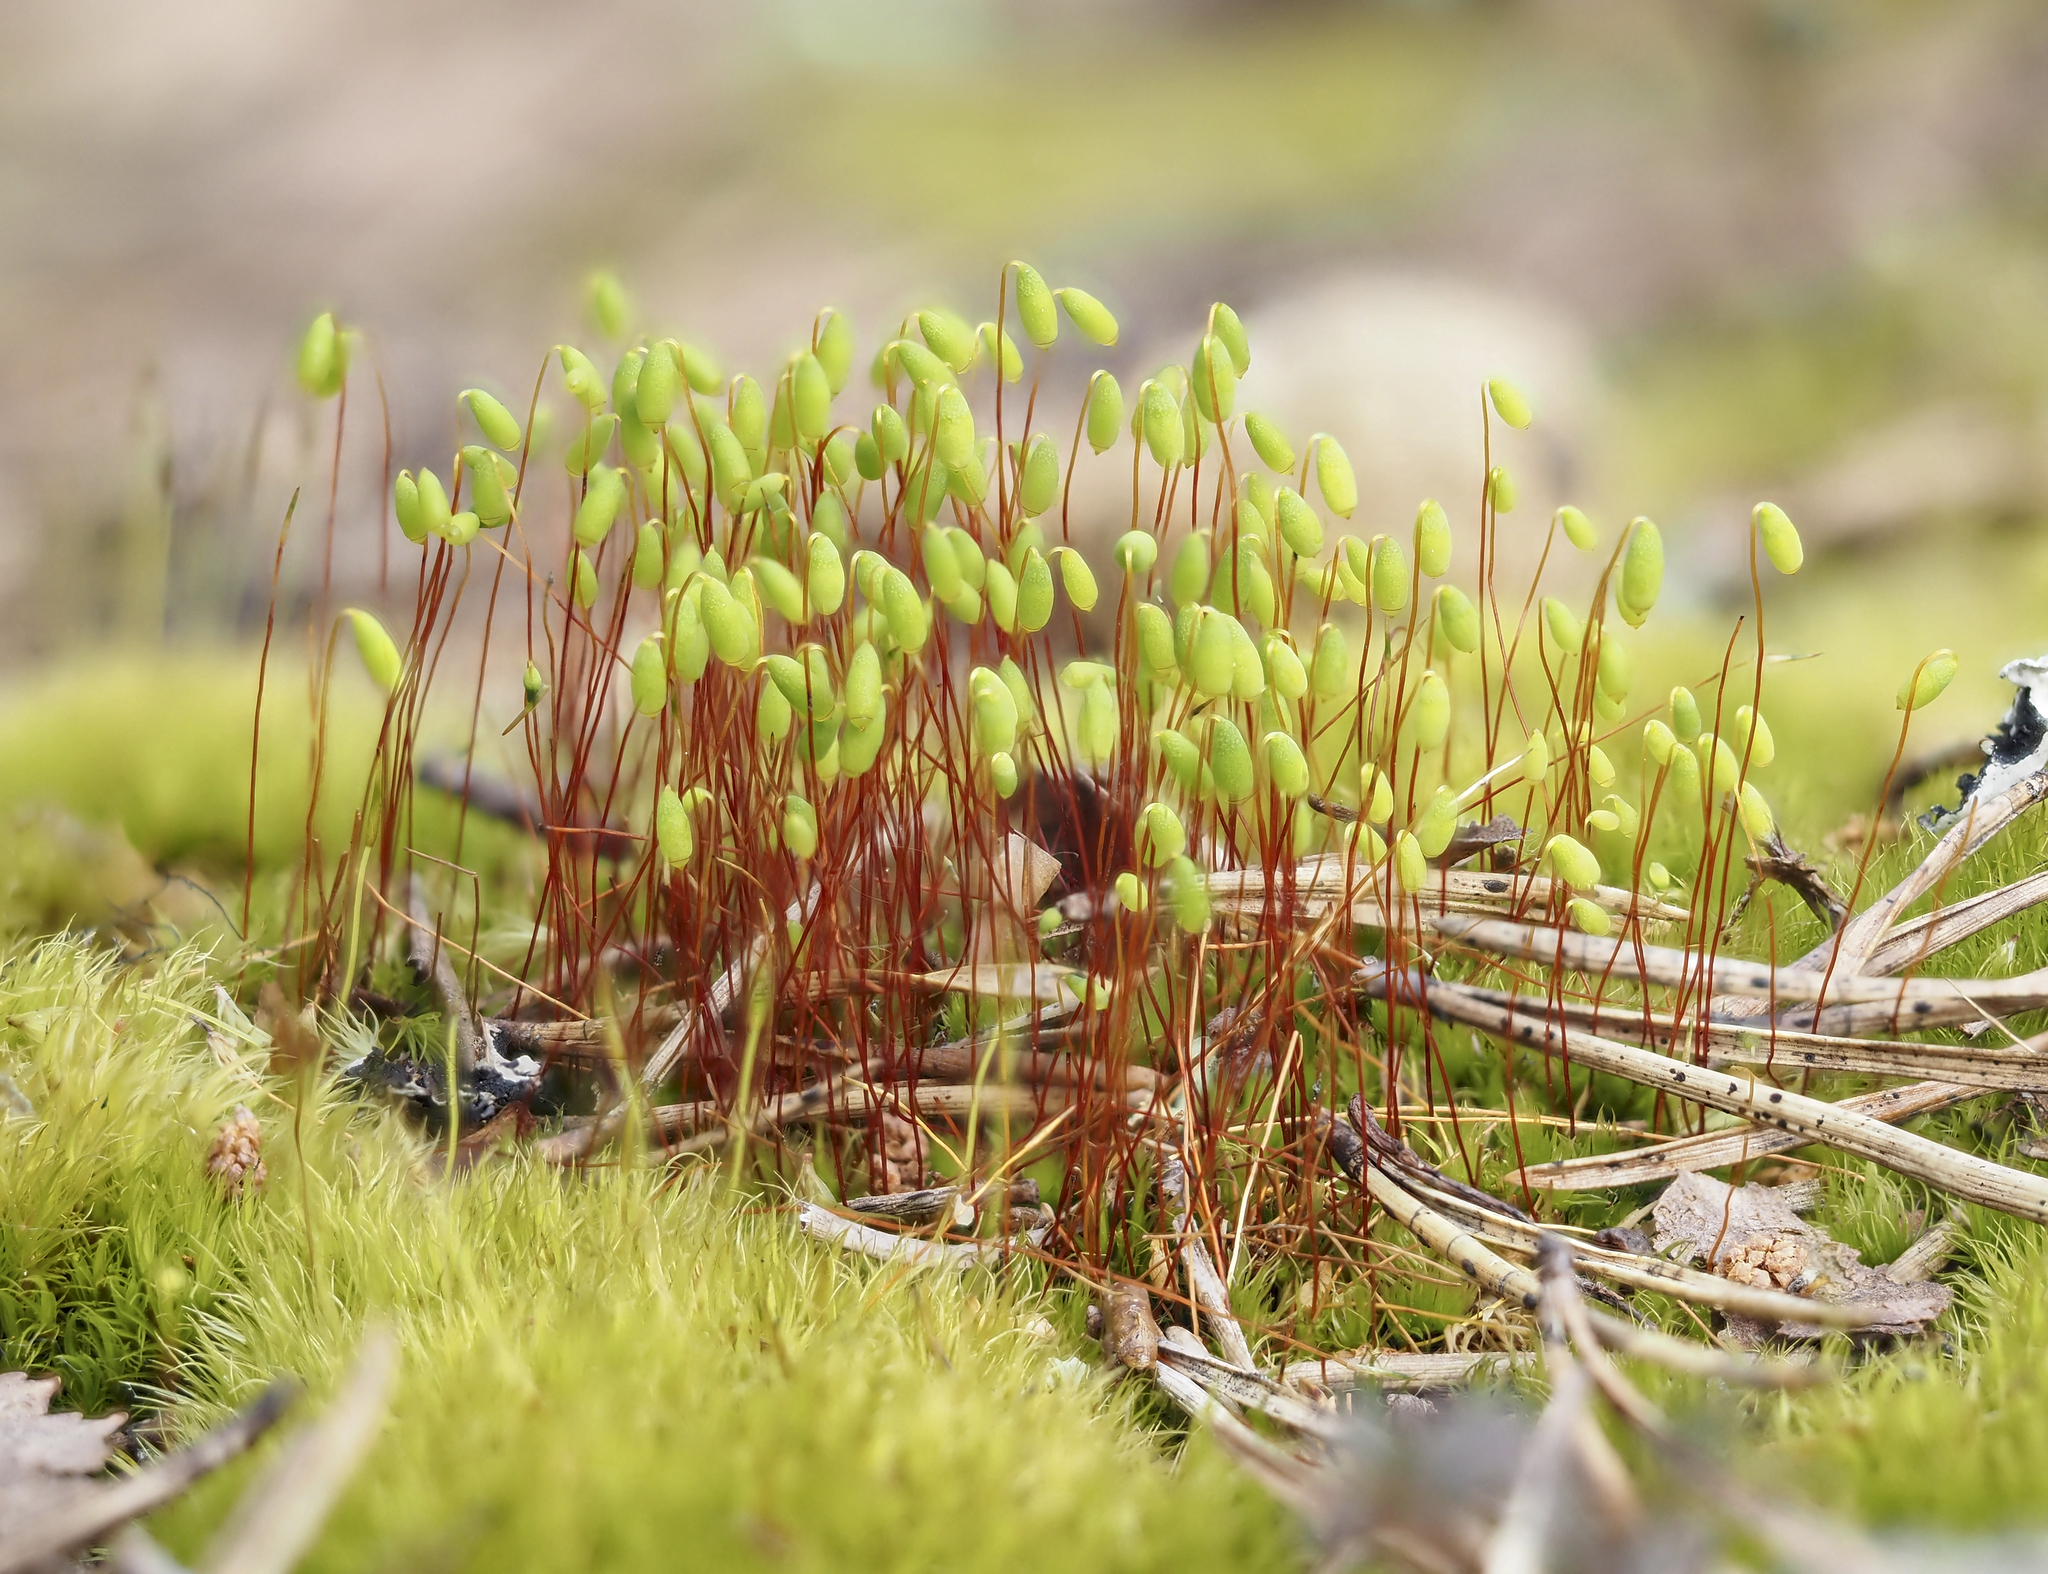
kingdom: Plantae
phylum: Bryophyta
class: Bryopsida
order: Bryales
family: Mniaceae
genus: Pohlia
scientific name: Pohlia nutans
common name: Nodding thread-moss
